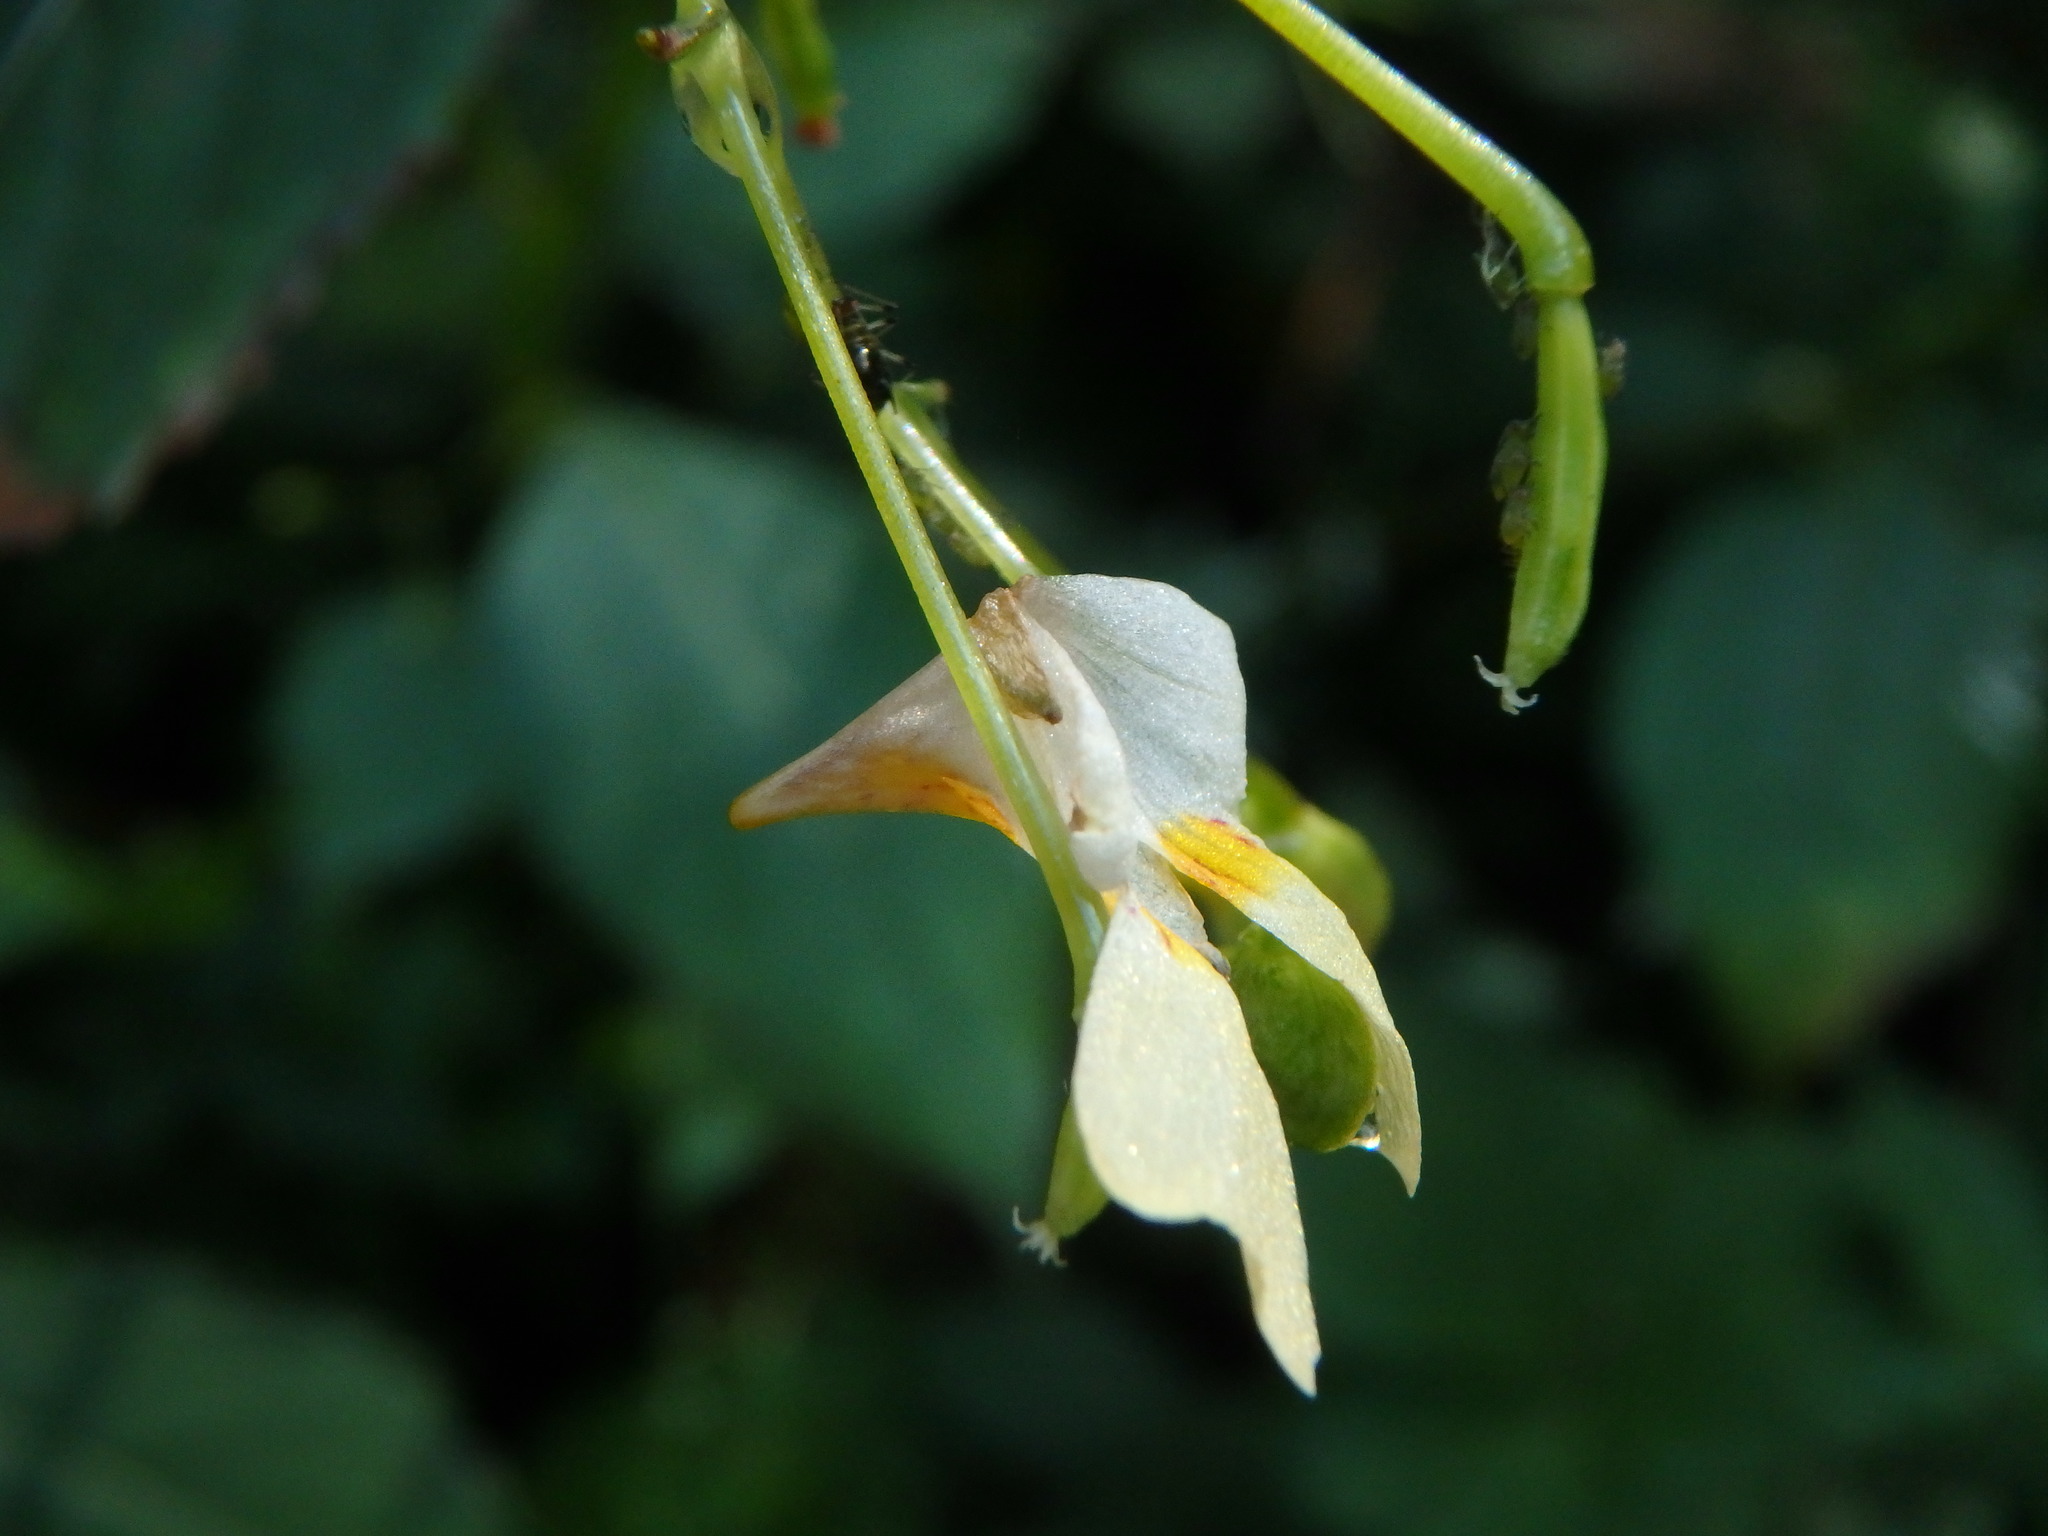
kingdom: Plantae
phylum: Tracheophyta
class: Magnoliopsida
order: Ericales
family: Balsaminaceae
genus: Impatiens
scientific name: Impatiens parviflora
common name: Small balsam
